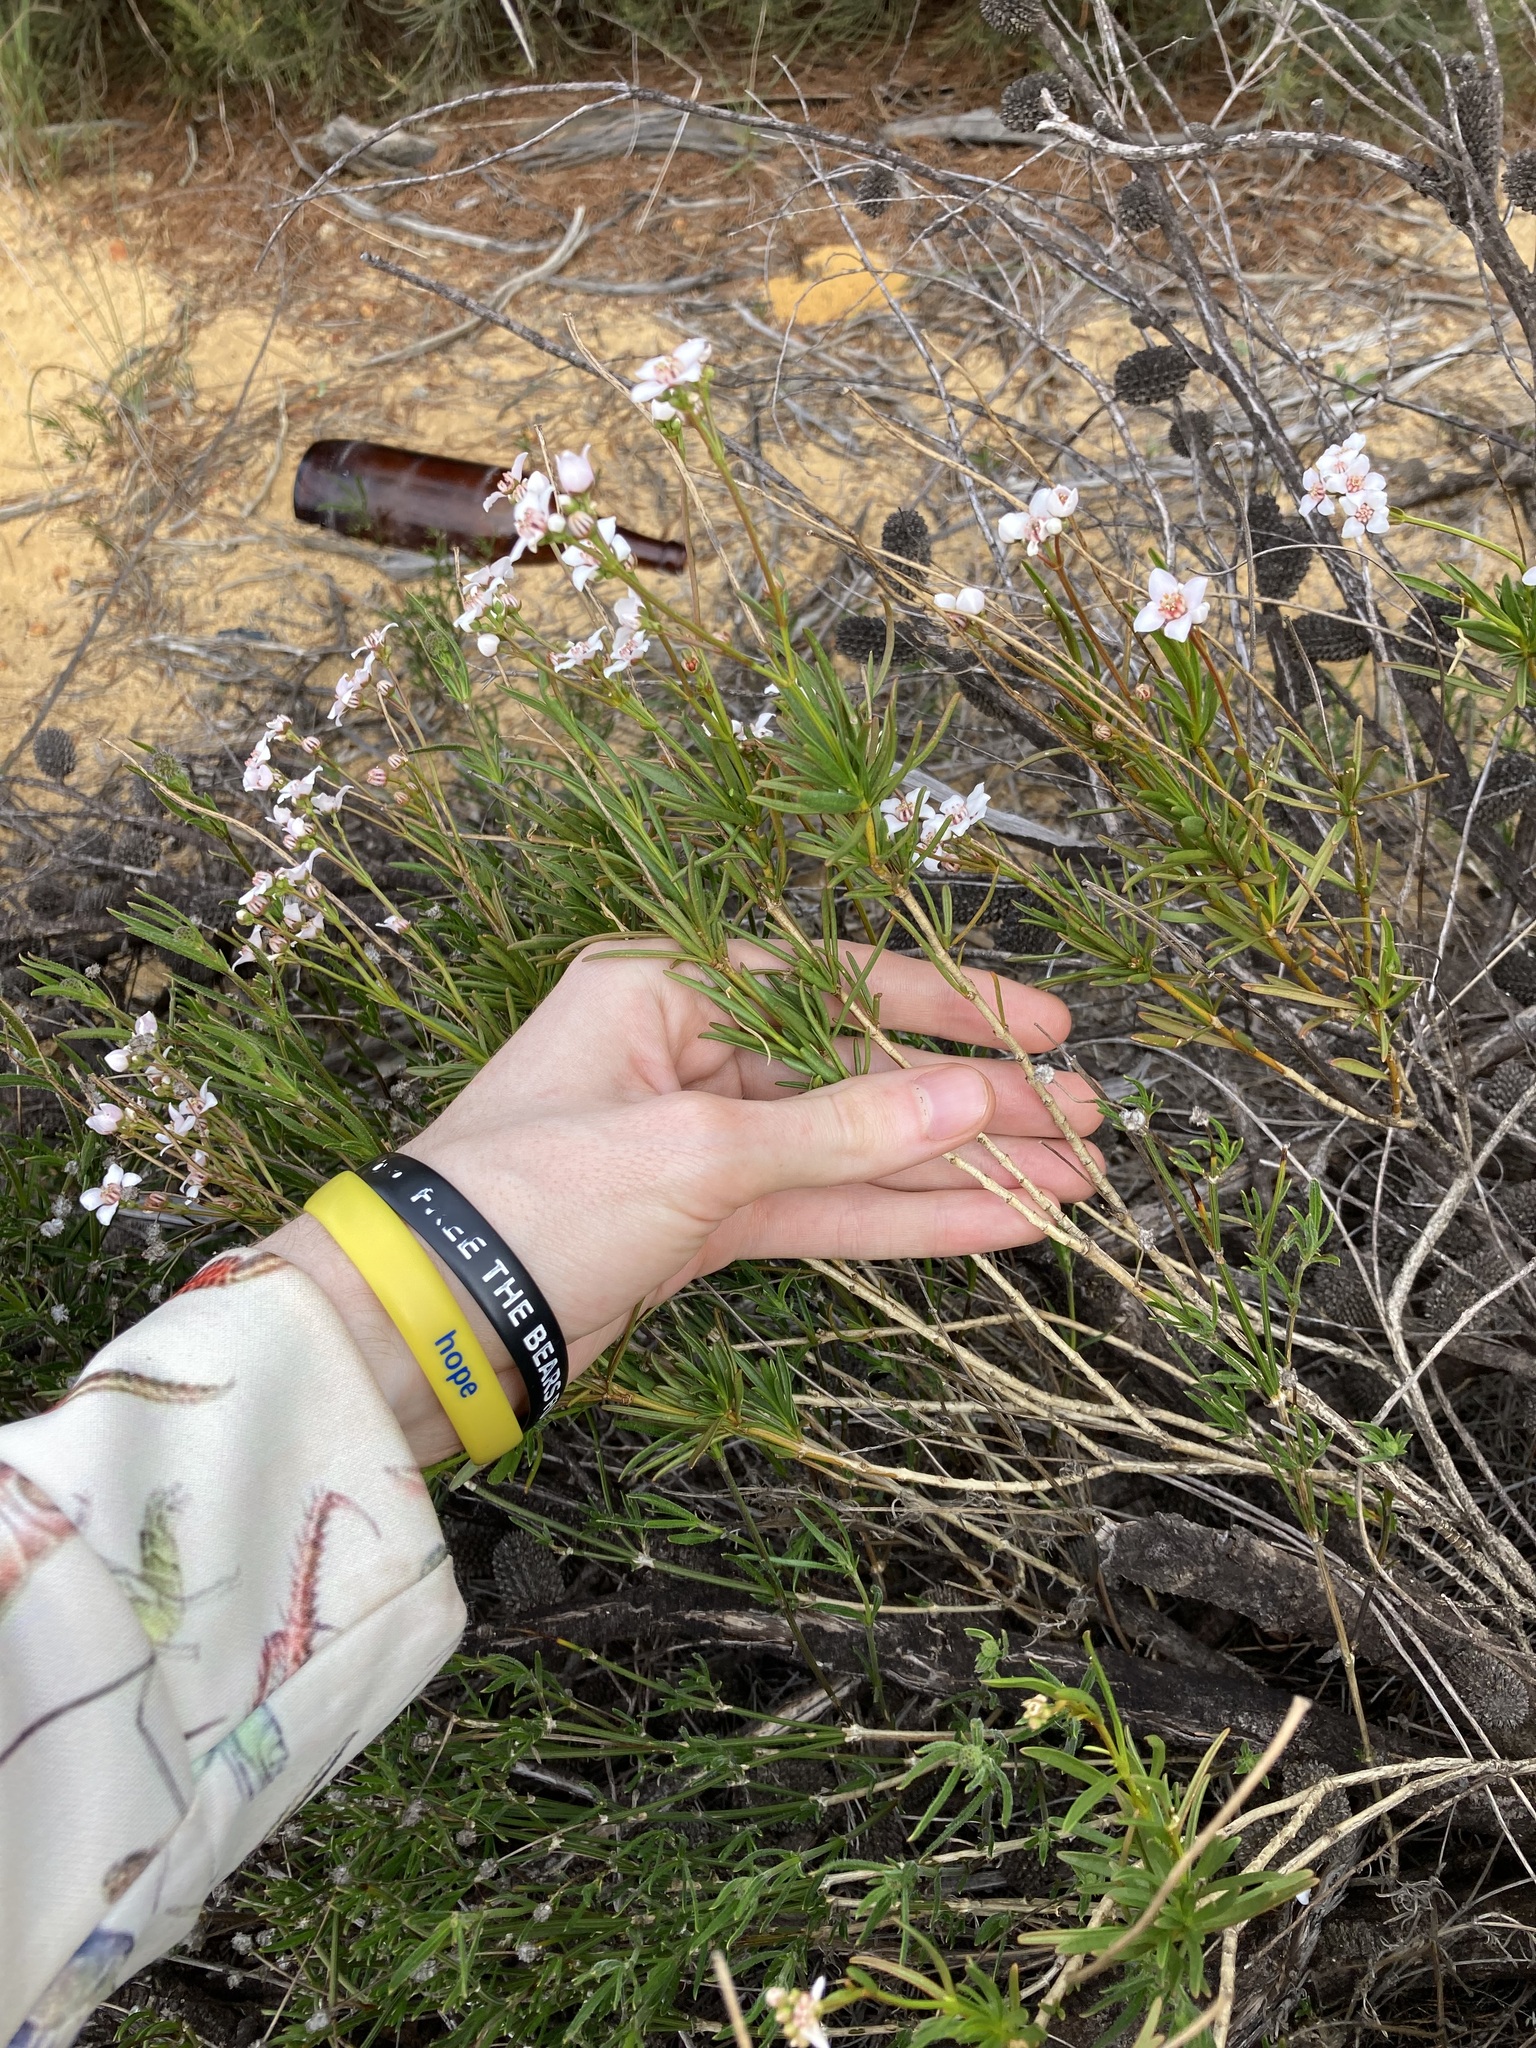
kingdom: Plantae
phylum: Tracheophyta
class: Magnoliopsida
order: Sapindales
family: Rutaceae
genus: Boronia
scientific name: Boronia cymosa
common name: Granite boronia
